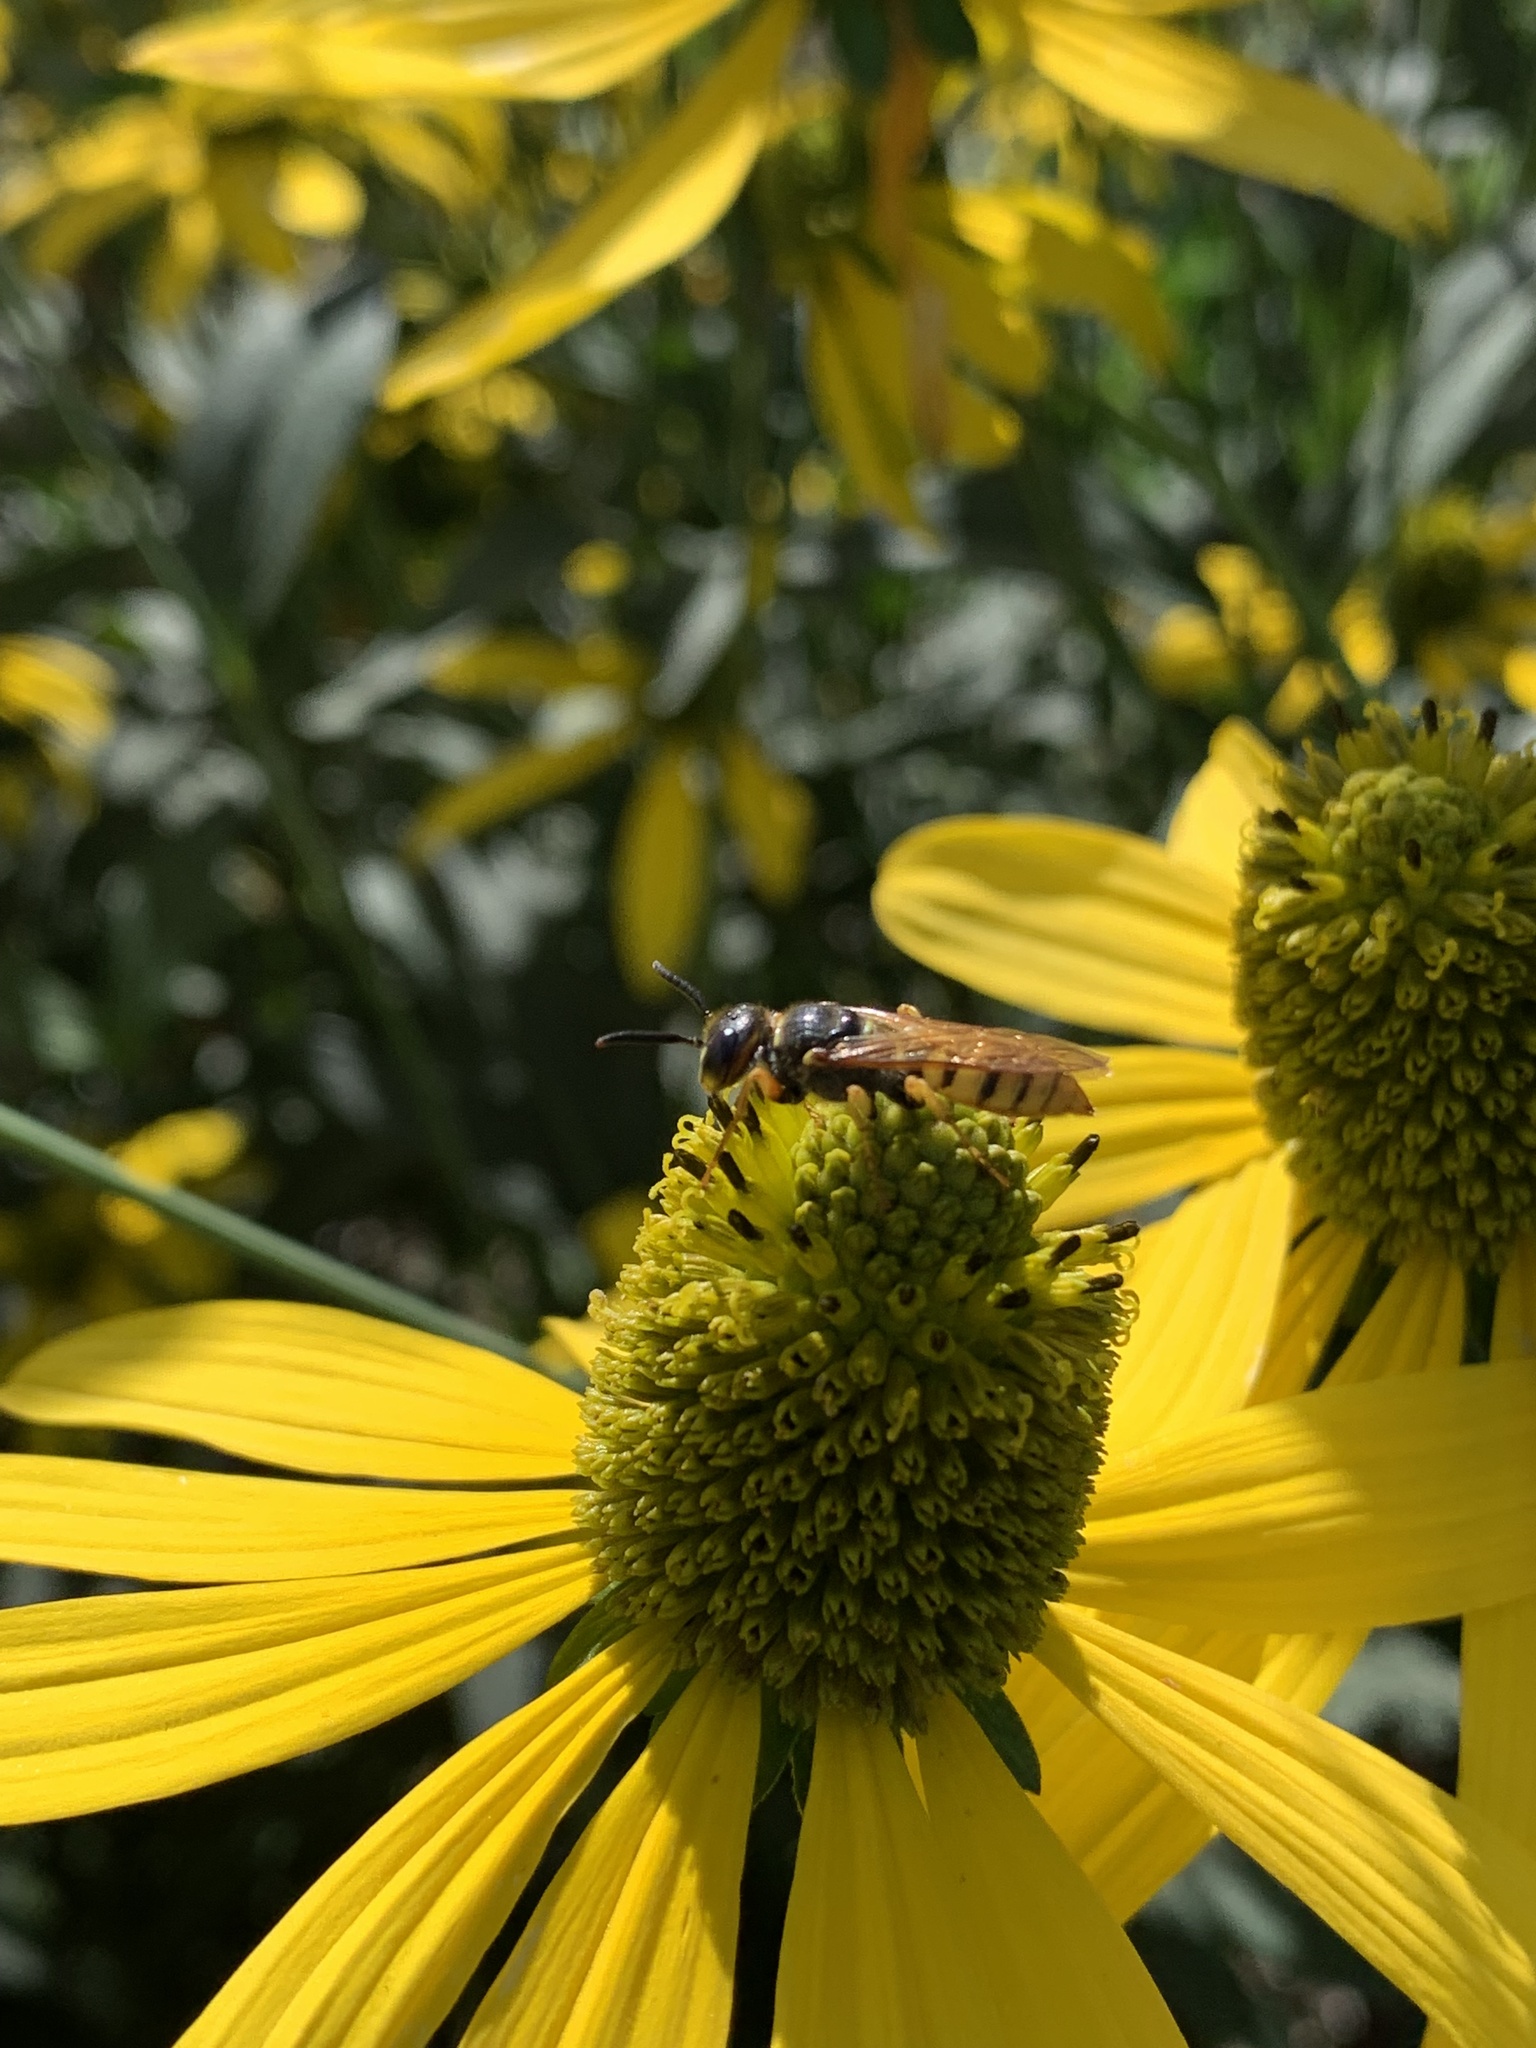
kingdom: Animalia
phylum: Arthropoda
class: Insecta
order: Hymenoptera
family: Crabronidae
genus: Philanthus
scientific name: Philanthus triangulum
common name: Bee wolf
